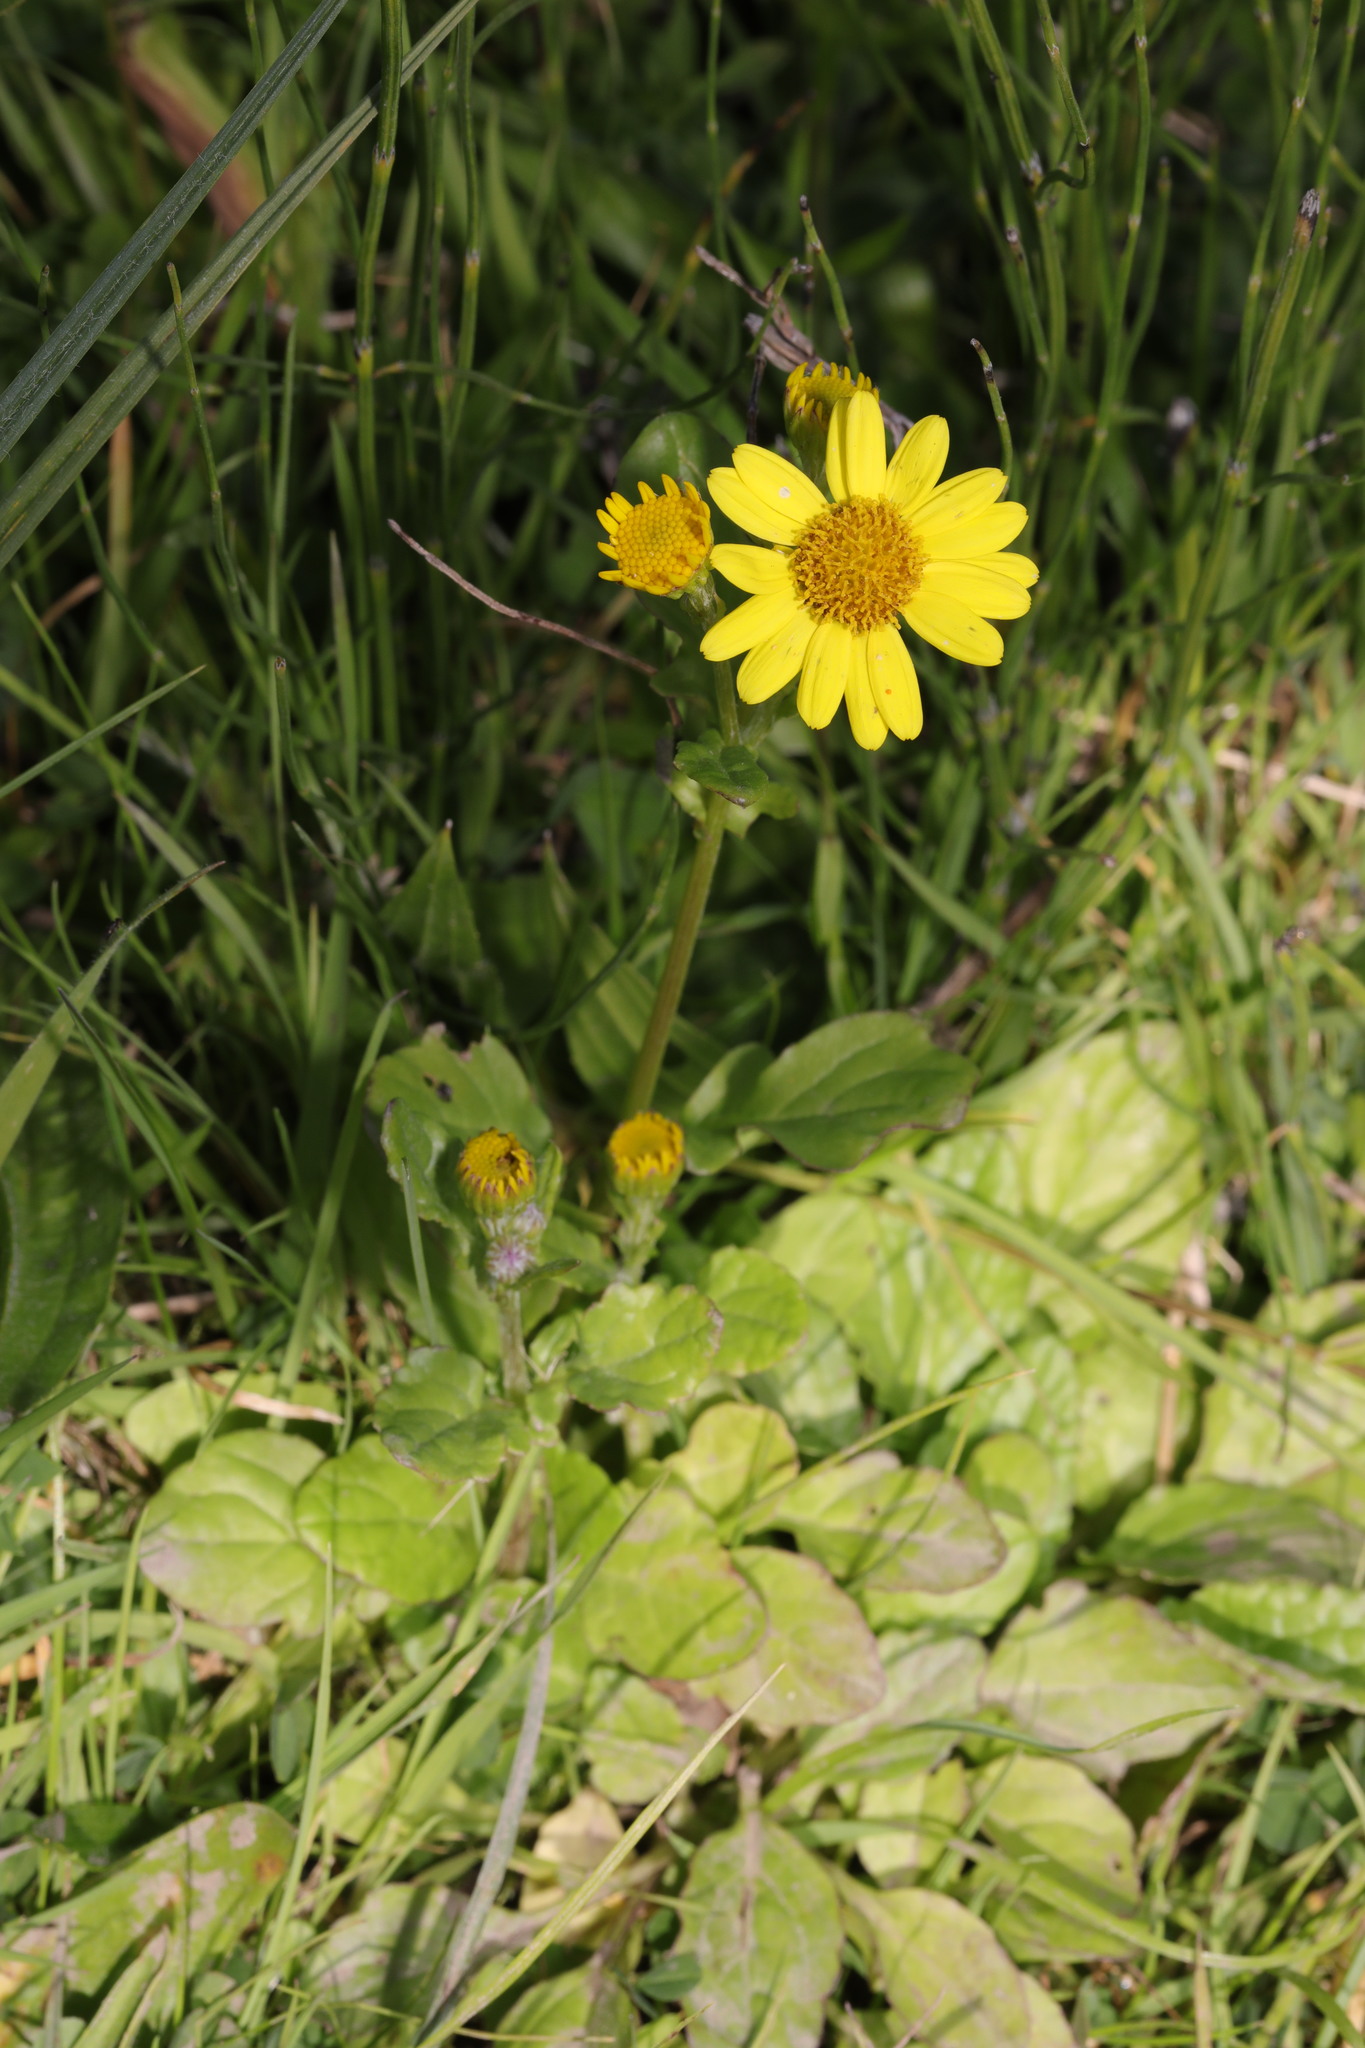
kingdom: Plantae
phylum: Tracheophyta
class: Magnoliopsida
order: Asterales
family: Asteraceae
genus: Jacobaea
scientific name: Jacobaea aquatica
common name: Water ragwort
